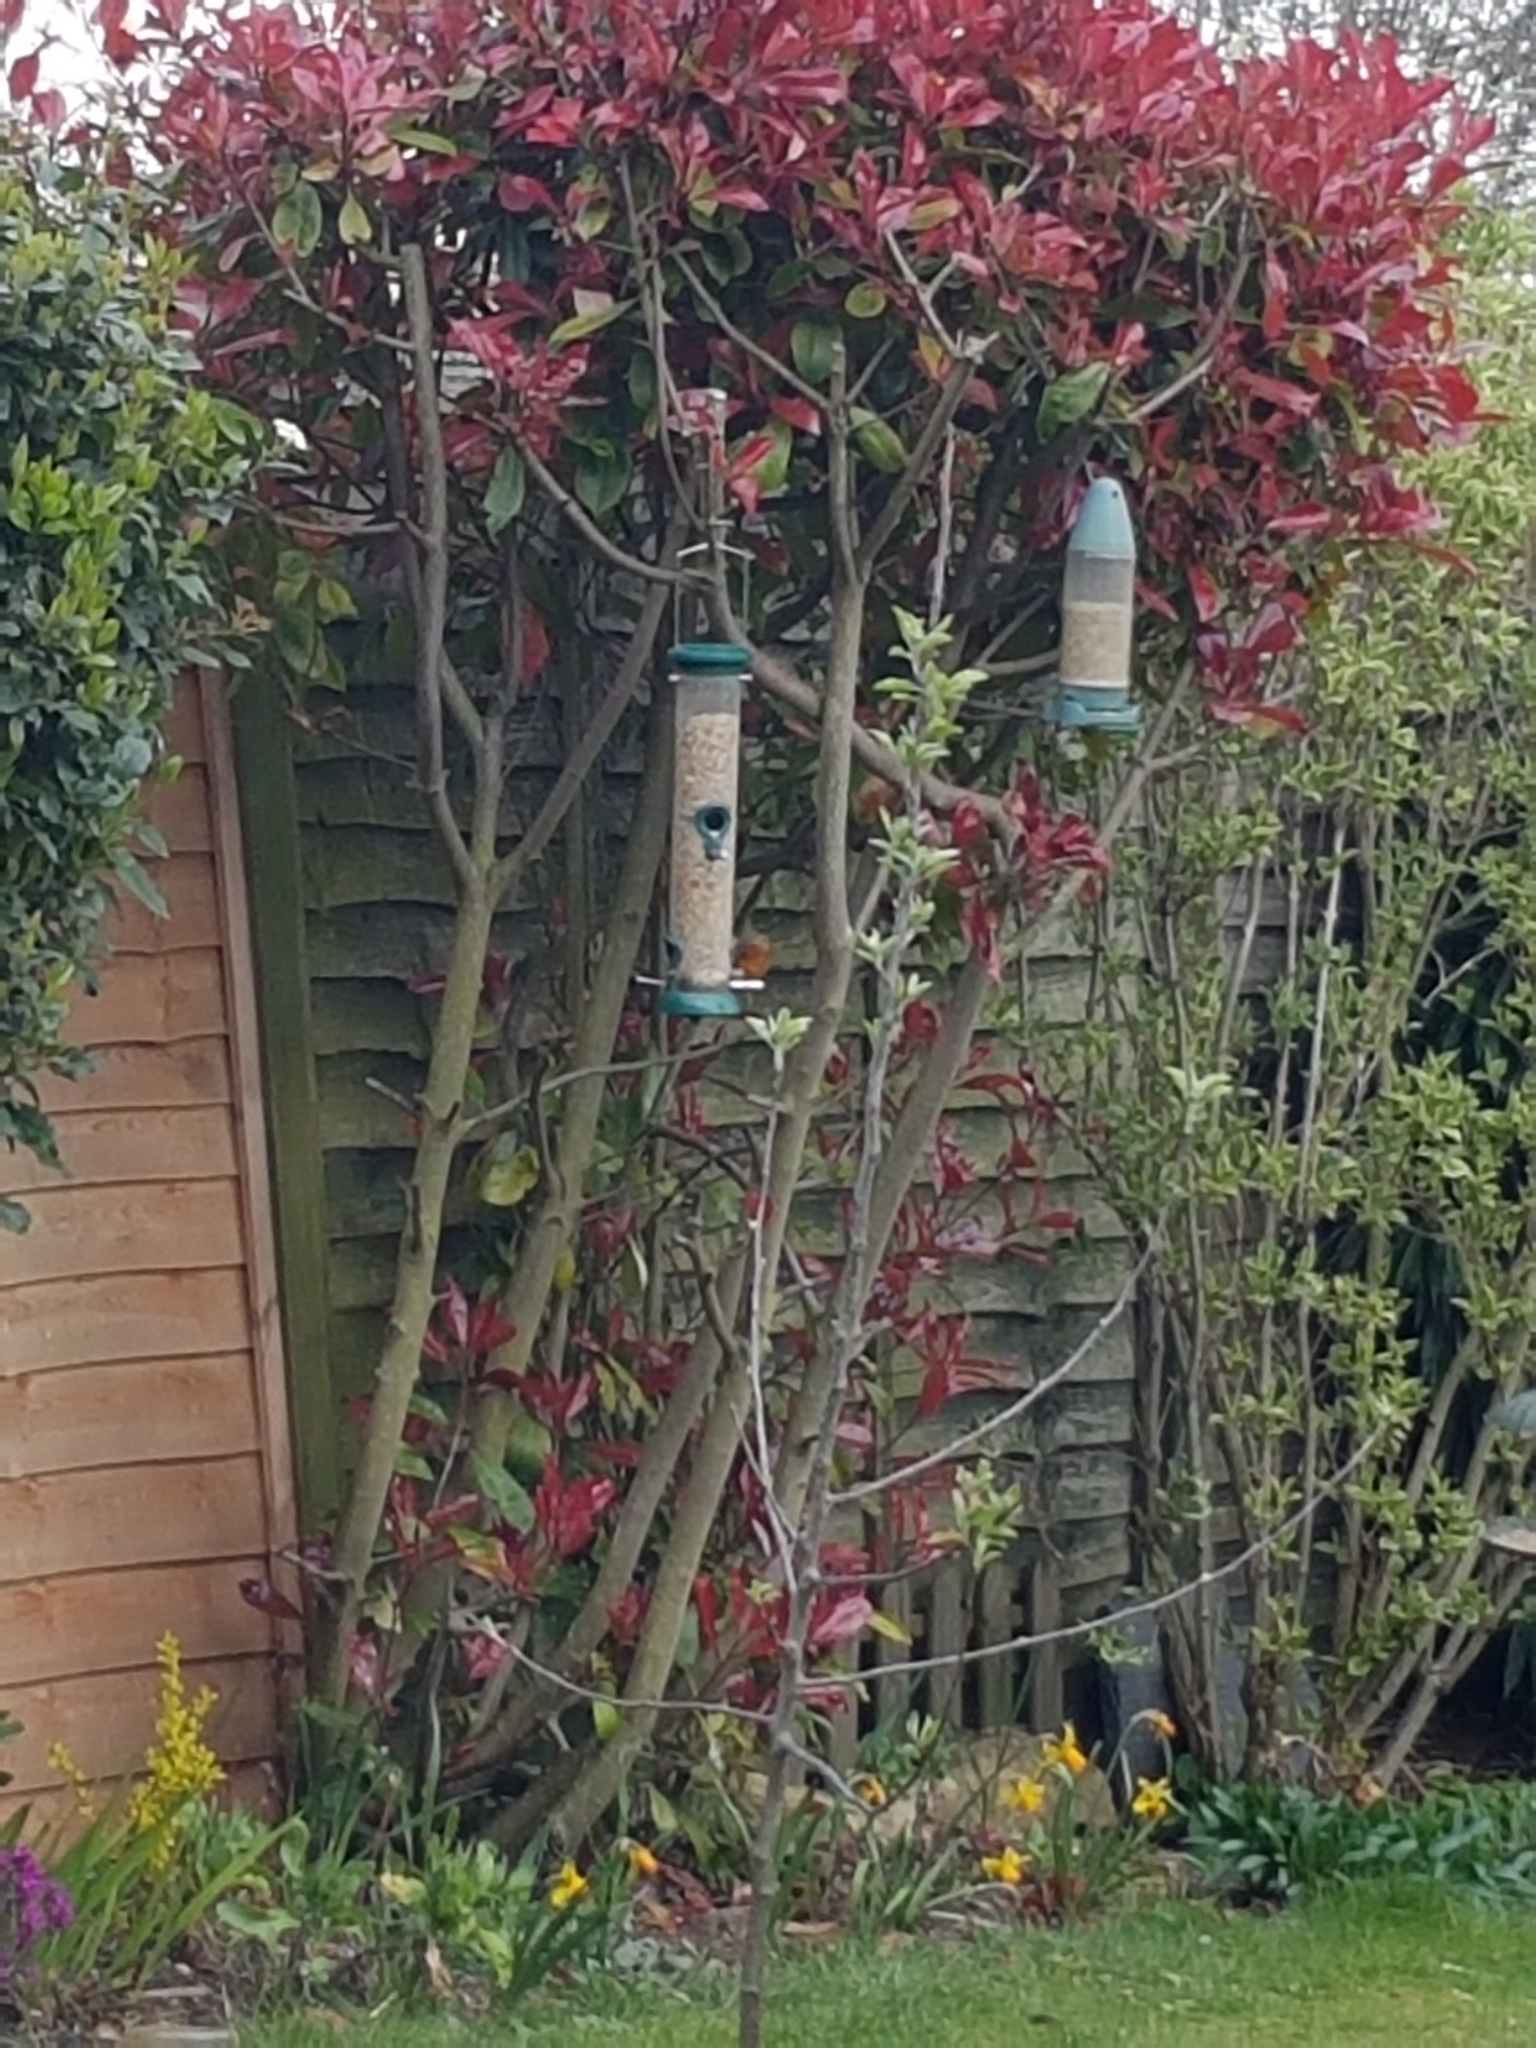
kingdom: Animalia
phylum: Chordata
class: Aves
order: Passeriformes
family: Muscicapidae
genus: Erithacus
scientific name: Erithacus rubecula
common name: European robin
